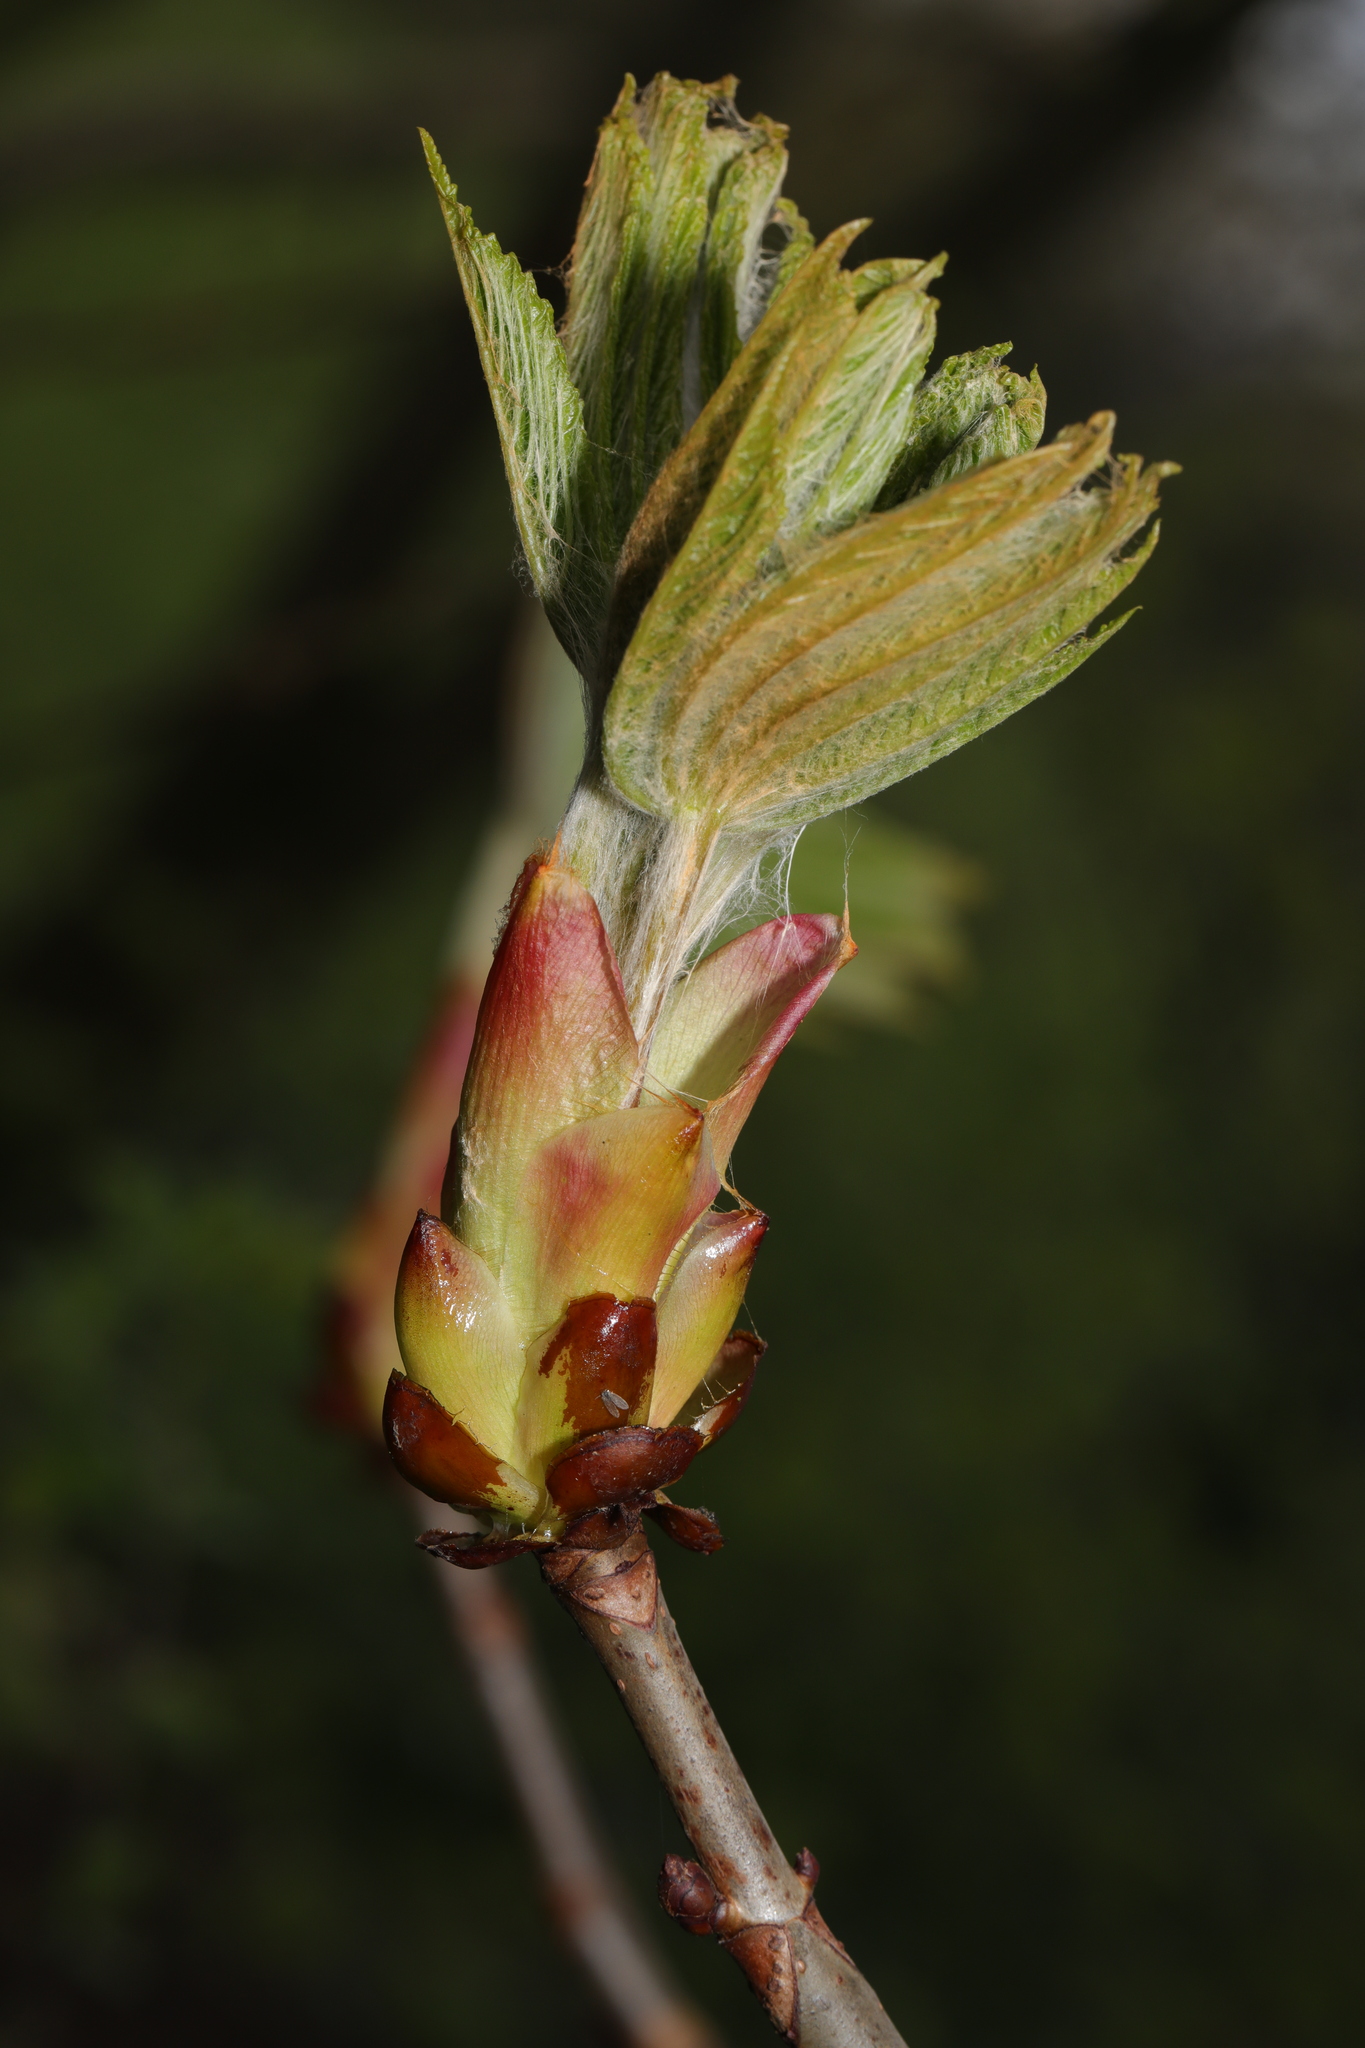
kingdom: Plantae
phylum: Tracheophyta
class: Magnoliopsida
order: Sapindales
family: Sapindaceae
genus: Aesculus
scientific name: Aesculus hippocastanum
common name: Horse-chestnut
